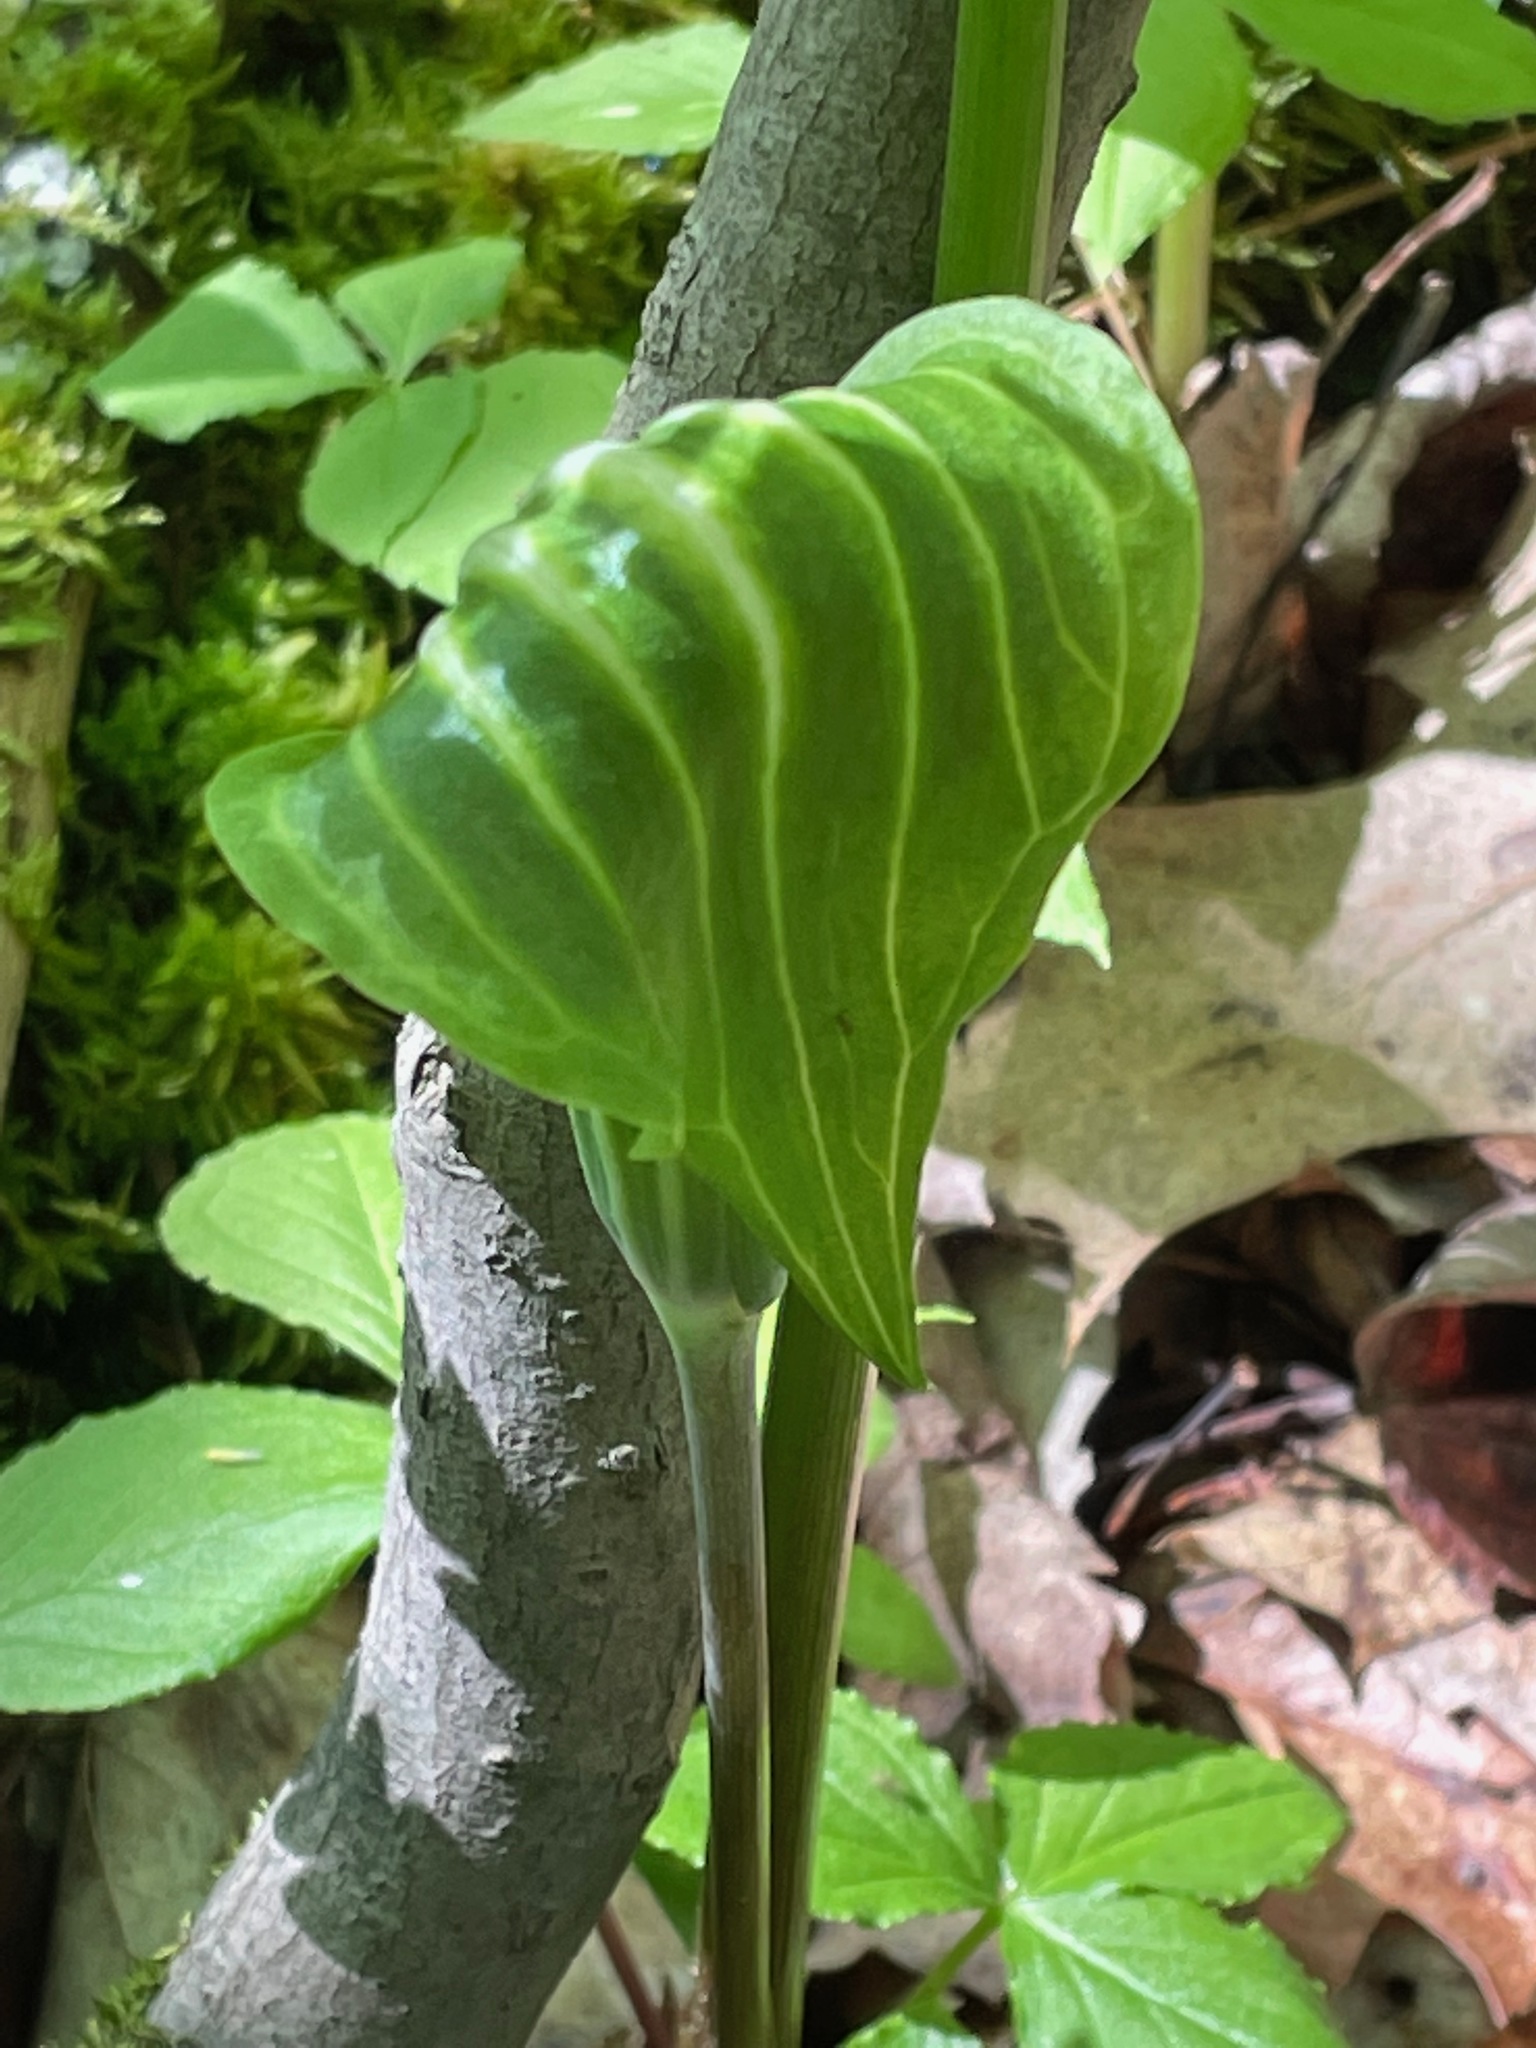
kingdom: Plantae
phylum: Tracheophyta
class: Liliopsida
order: Alismatales
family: Araceae
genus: Arisaema
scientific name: Arisaema stewardsonii
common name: Swamp jack-in-the-pulpit
